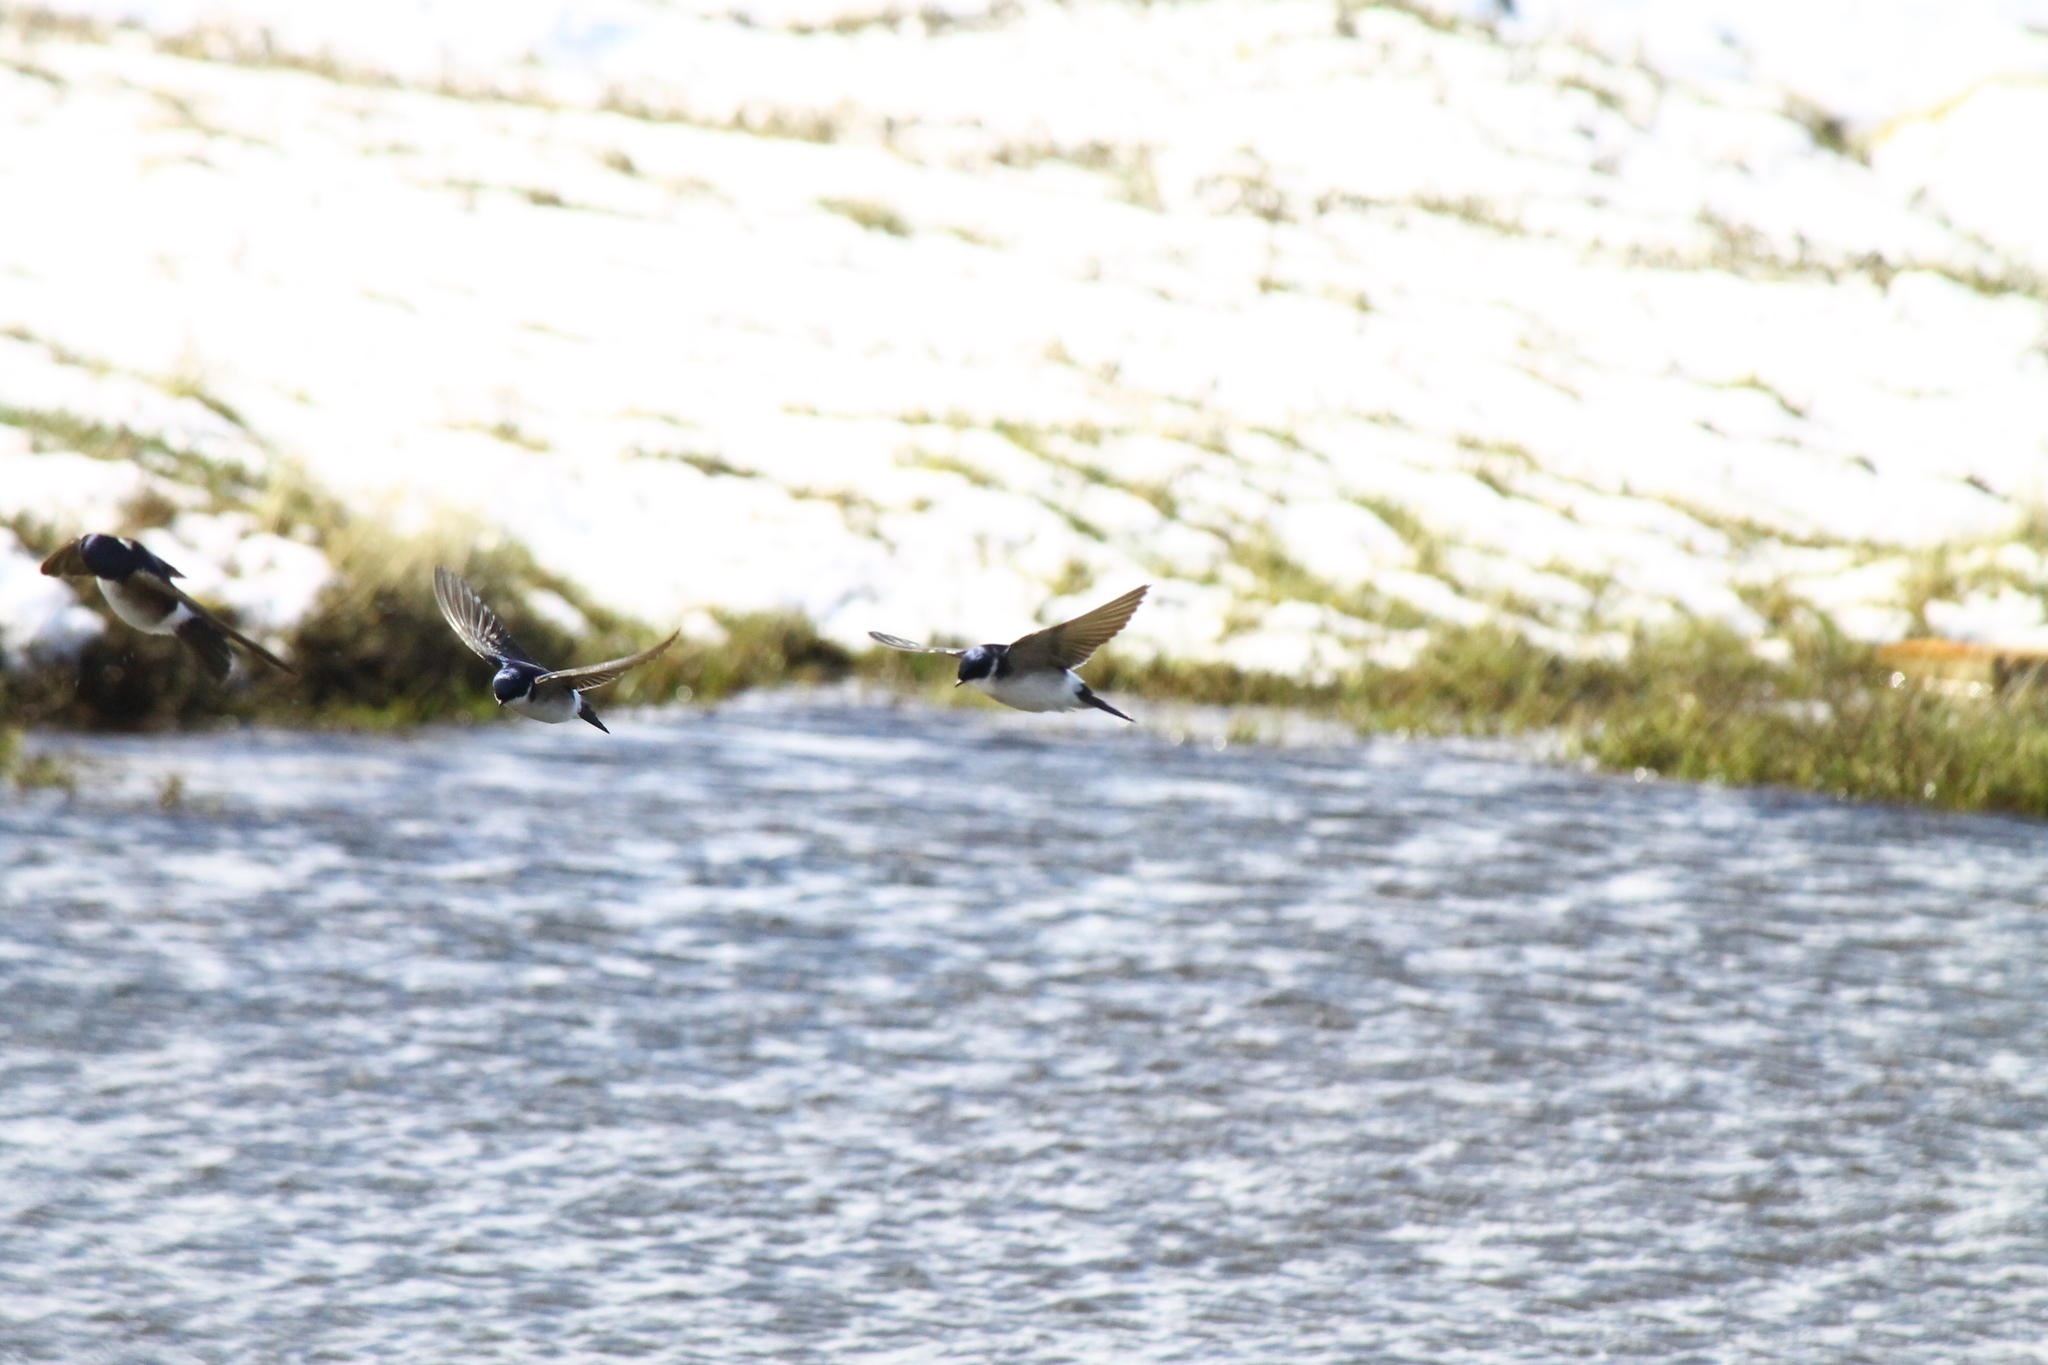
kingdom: Animalia
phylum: Chordata
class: Aves
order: Passeriformes
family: Hirundinidae
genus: Tachycineta
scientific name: Tachycineta leucopyga
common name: Chilean swallow
